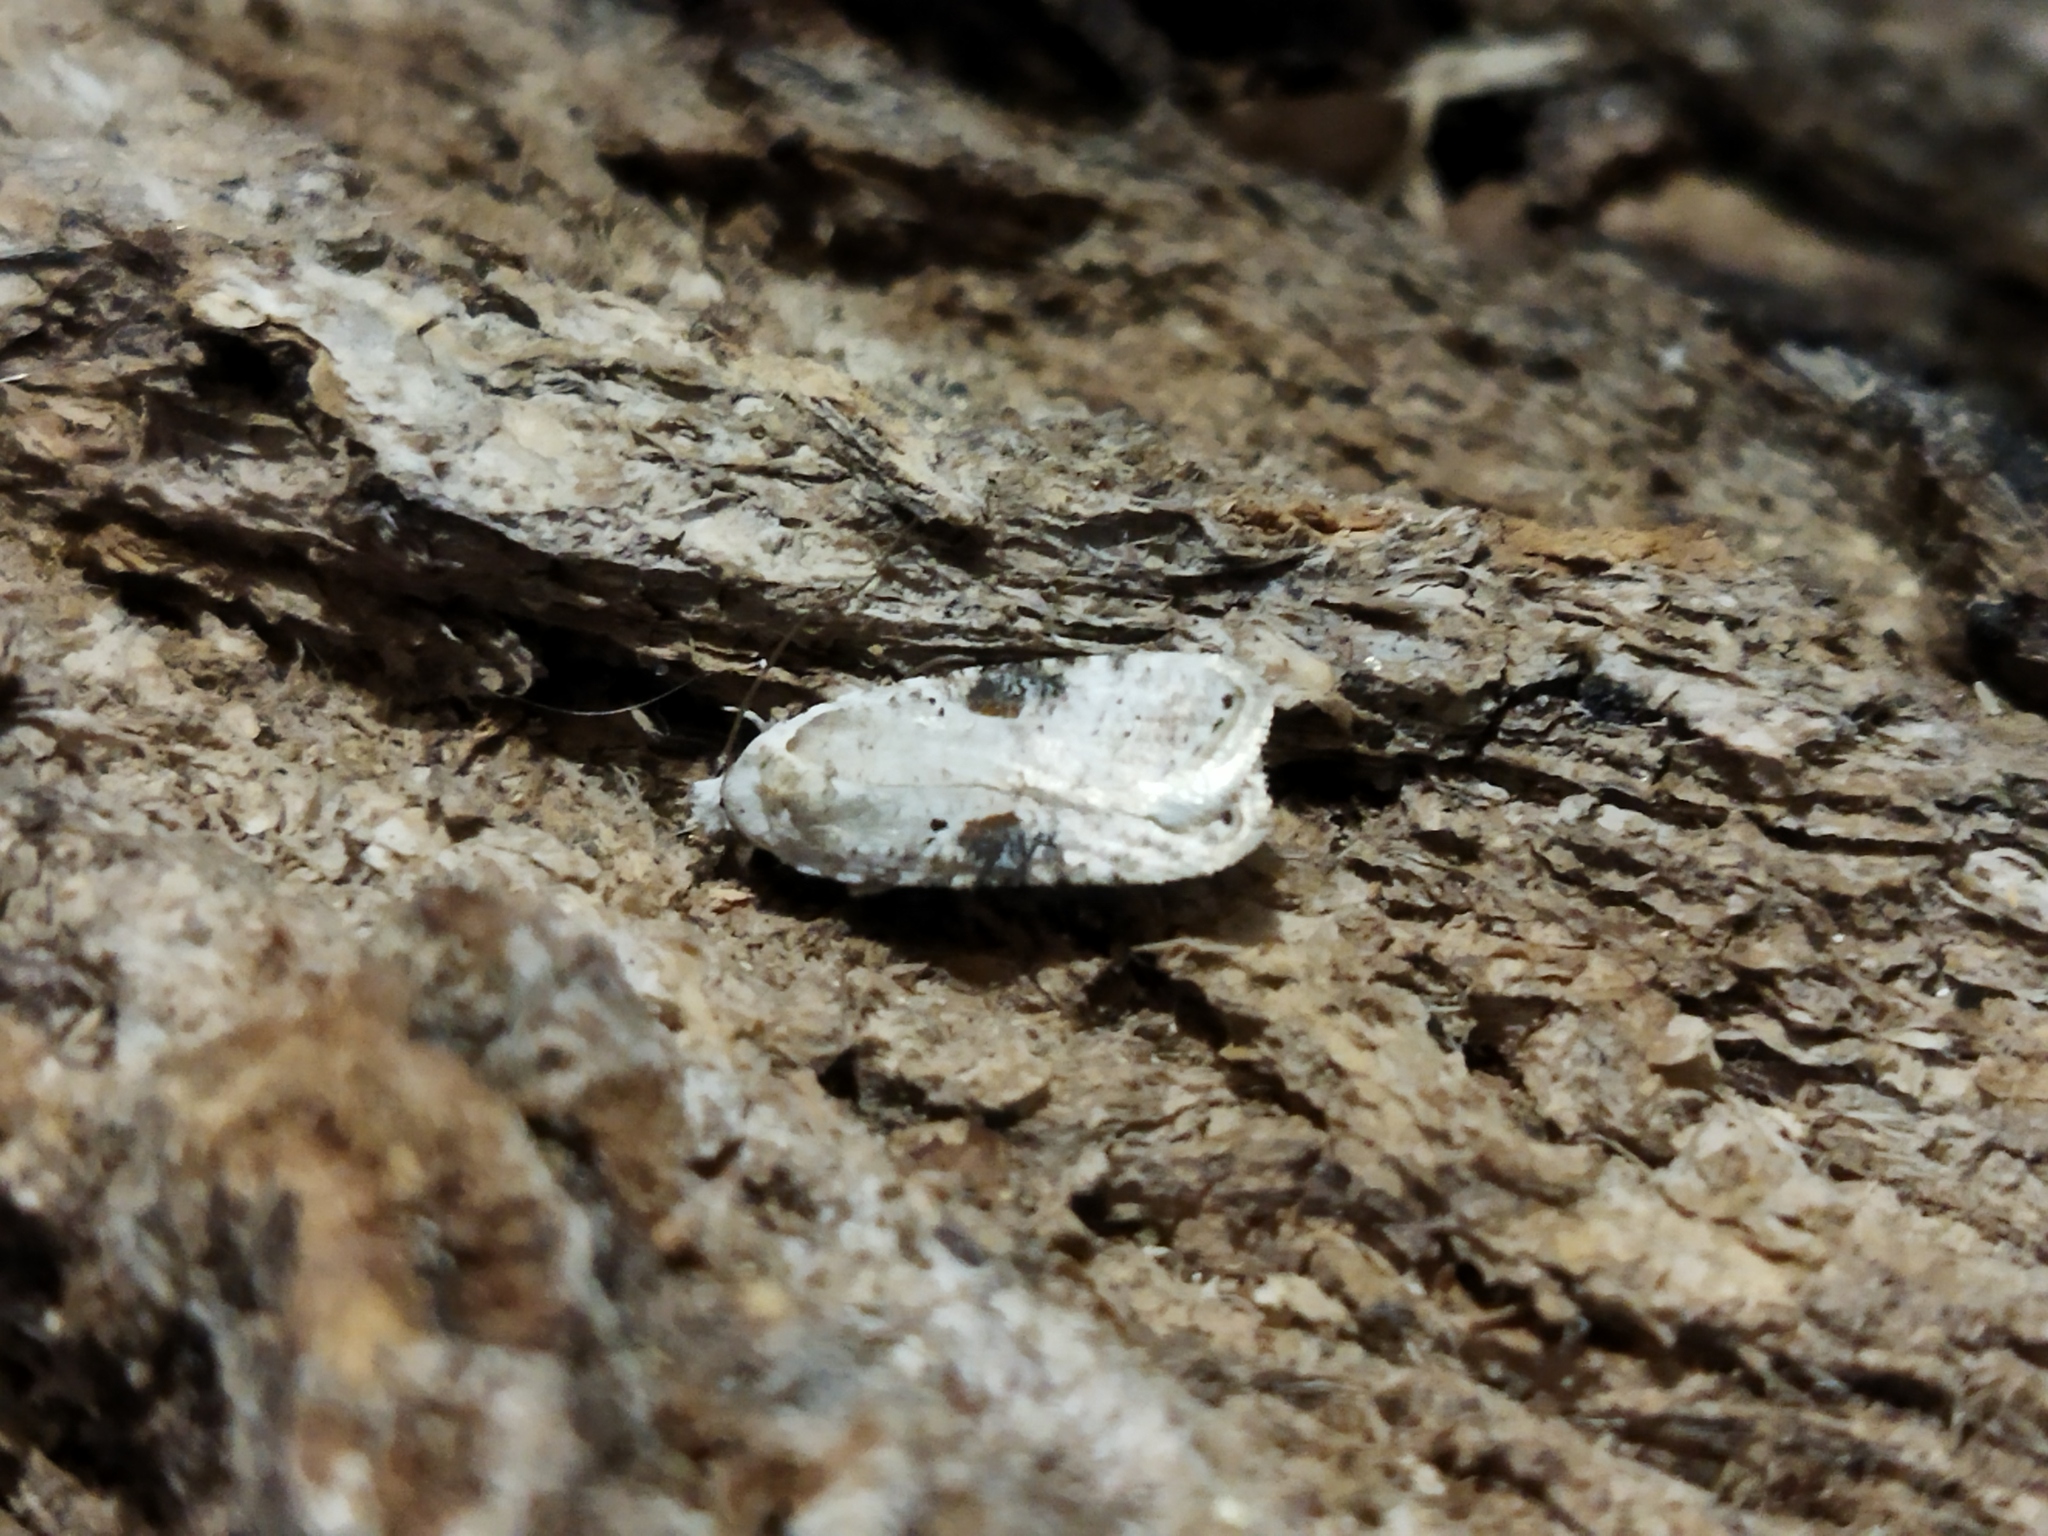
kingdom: Animalia
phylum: Arthropoda
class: Insecta
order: Lepidoptera
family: Depressariidae
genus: Agonopterix
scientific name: Agonopterix alstroemeriana
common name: Moth
